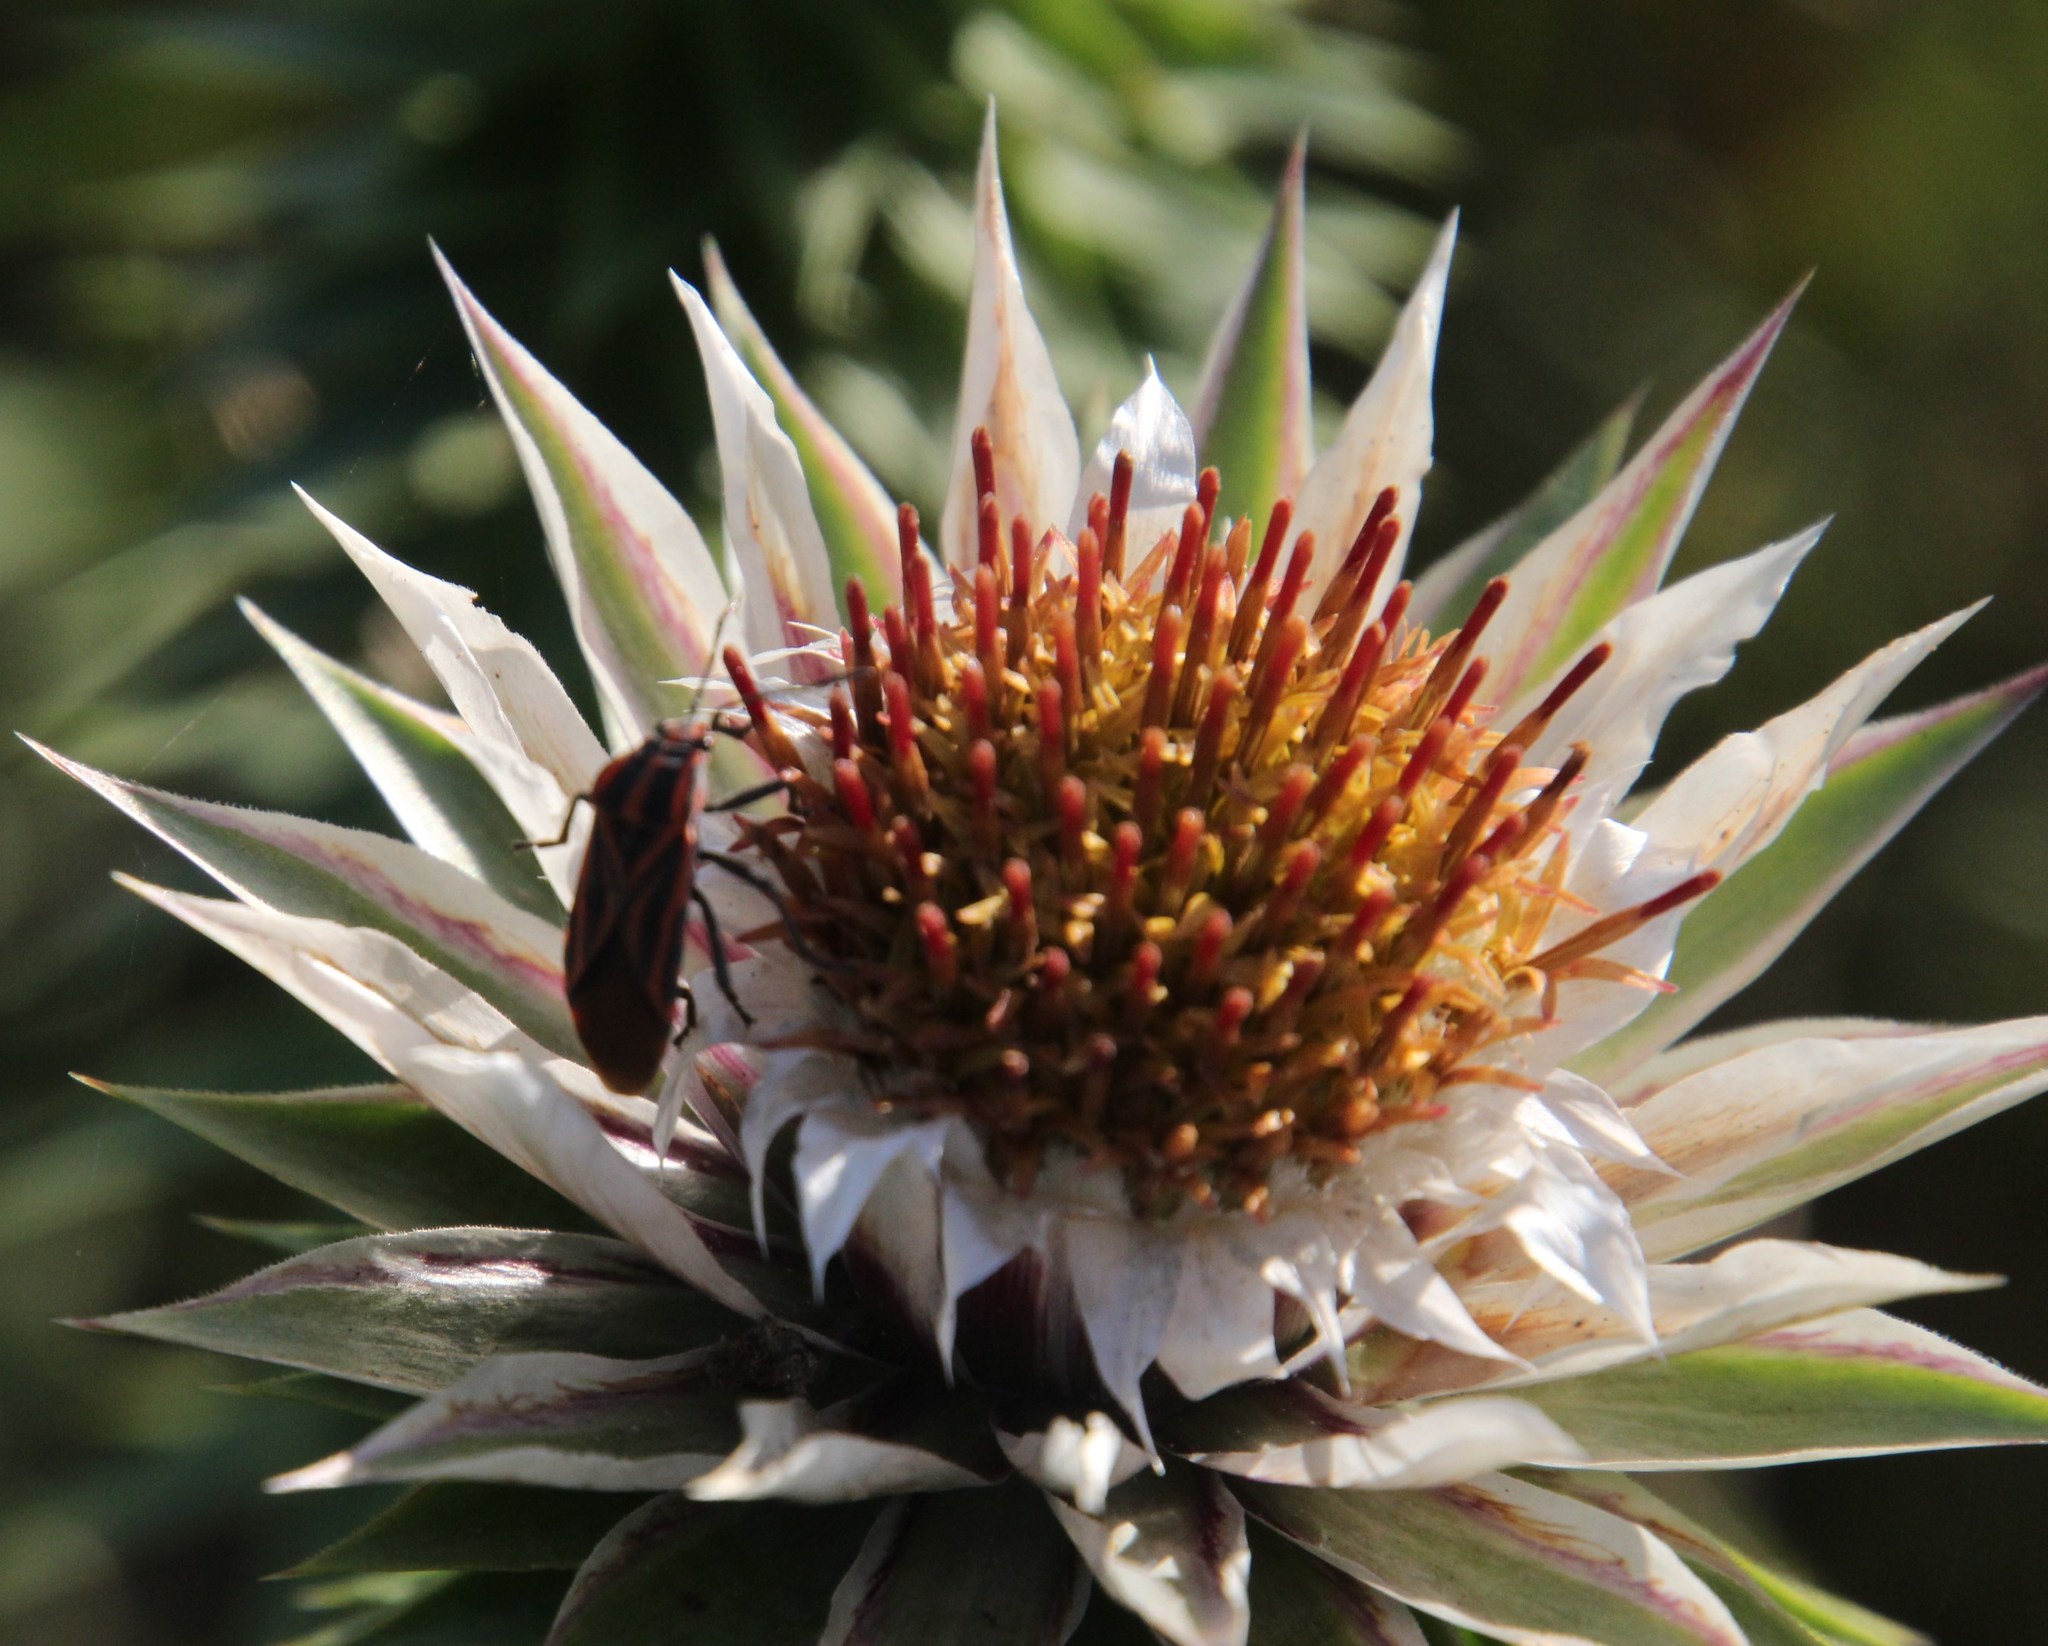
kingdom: Animalia
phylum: Arthropoda
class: Insecta
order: Hemiptera
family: Lygaeidae
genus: Spilostethus
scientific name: Spilostethus taeniatus
